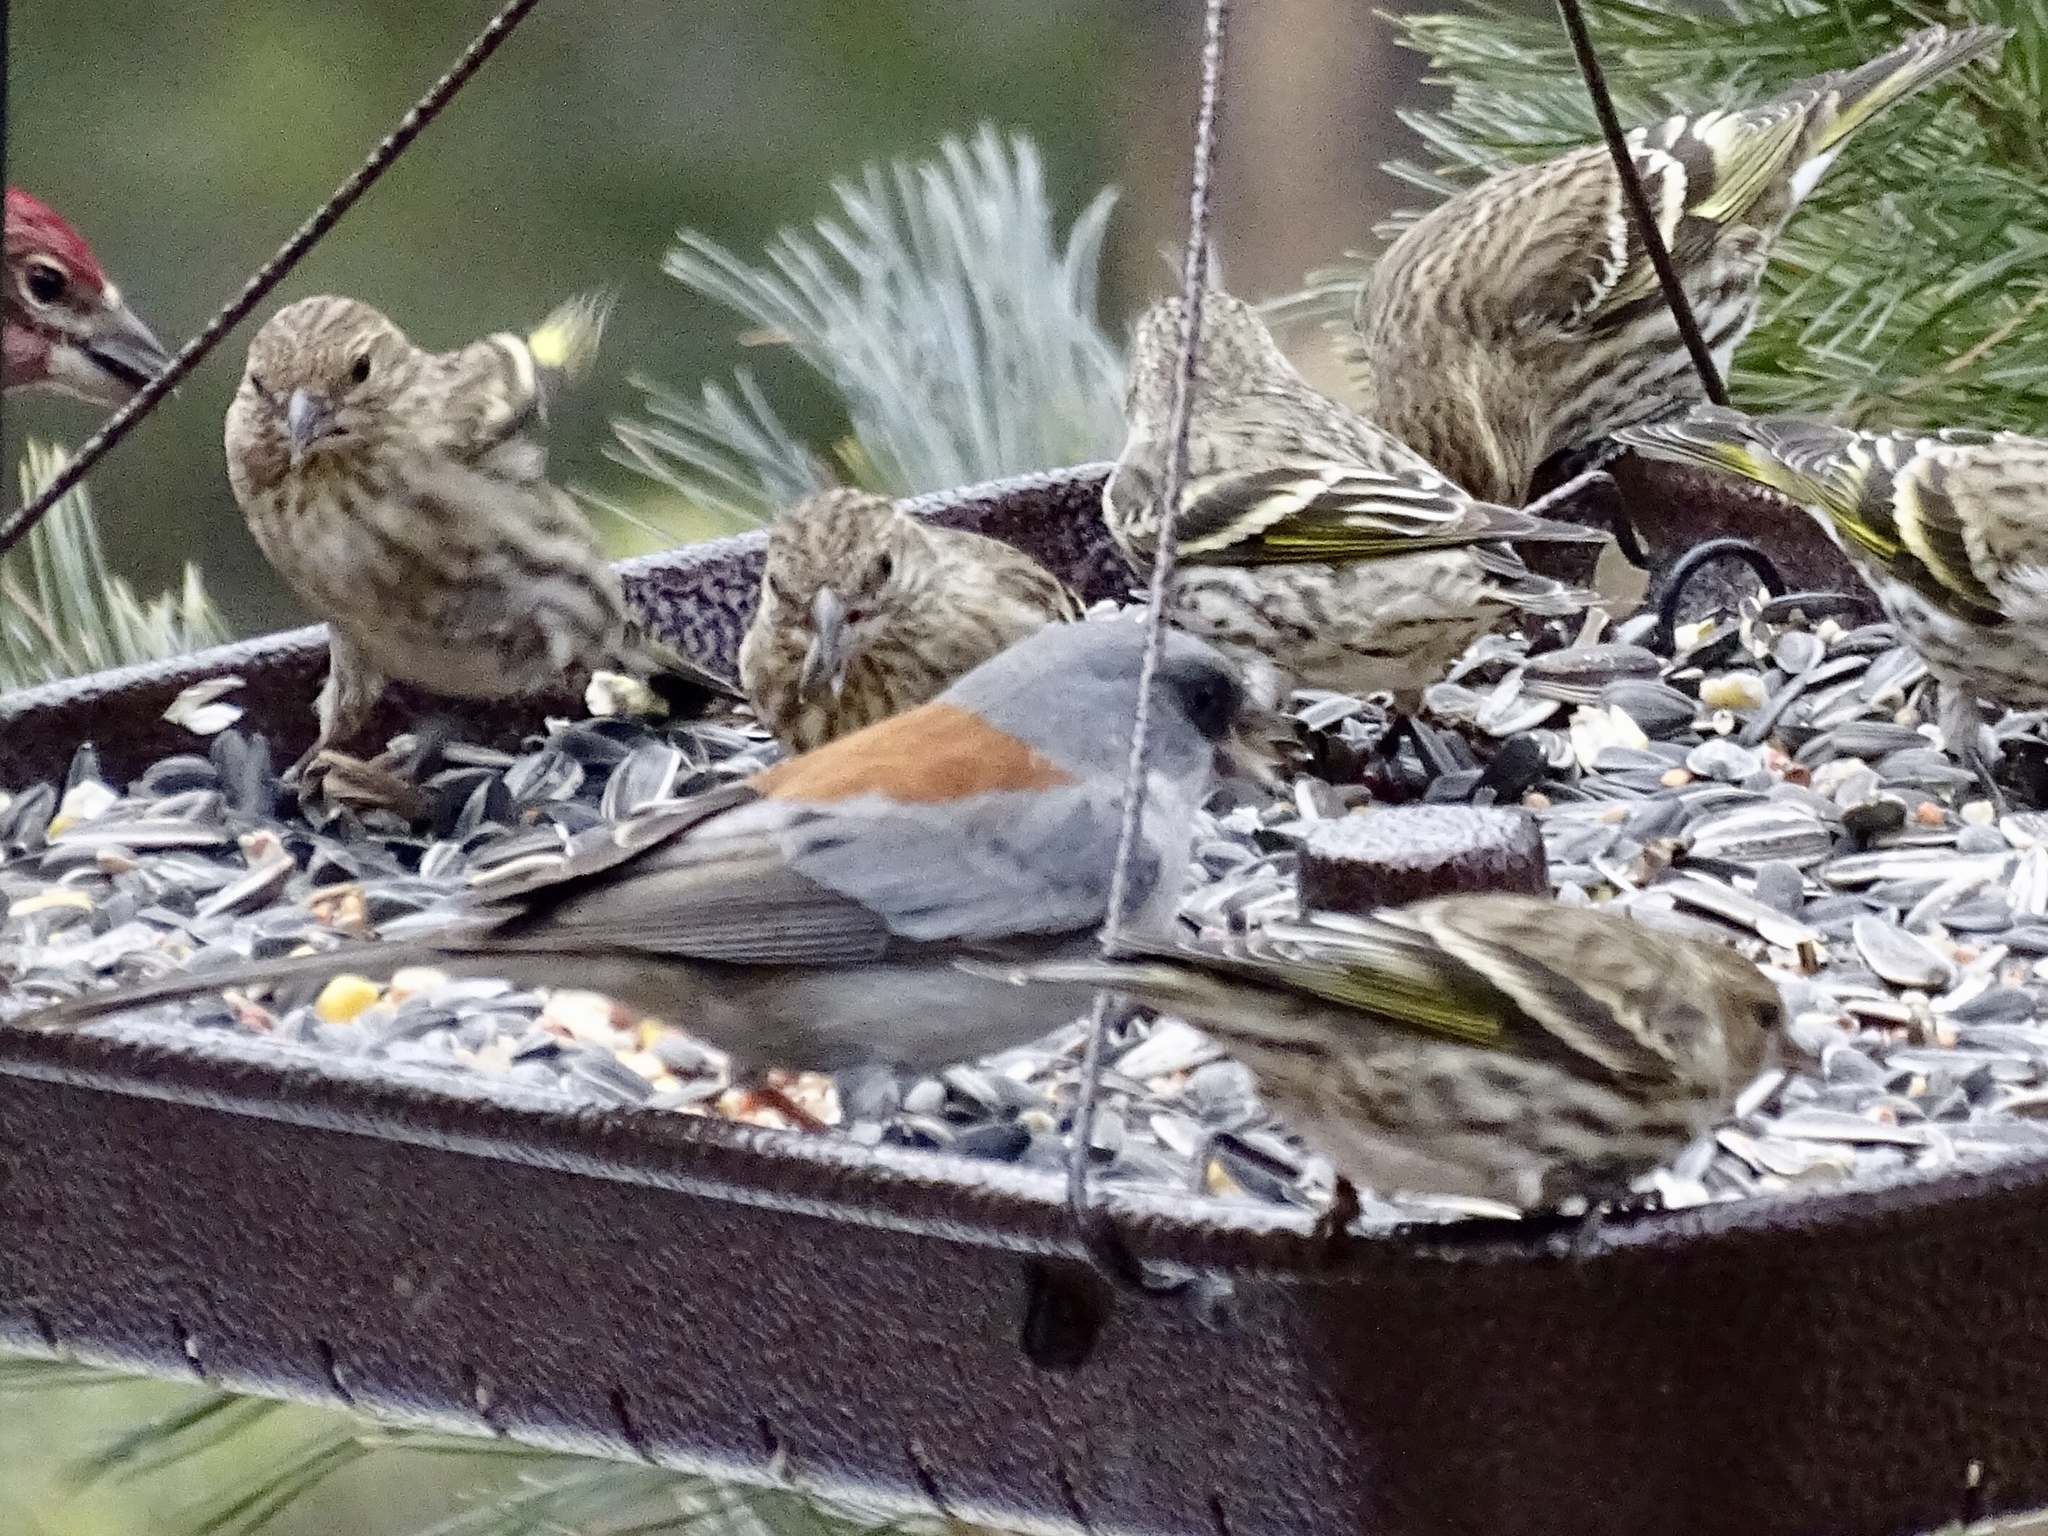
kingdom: Animalia
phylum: Chordata
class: Aves
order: Passeriformes
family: Passerellidae
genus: Junco
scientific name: Junco hyemalis
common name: Dark-eyed junco
